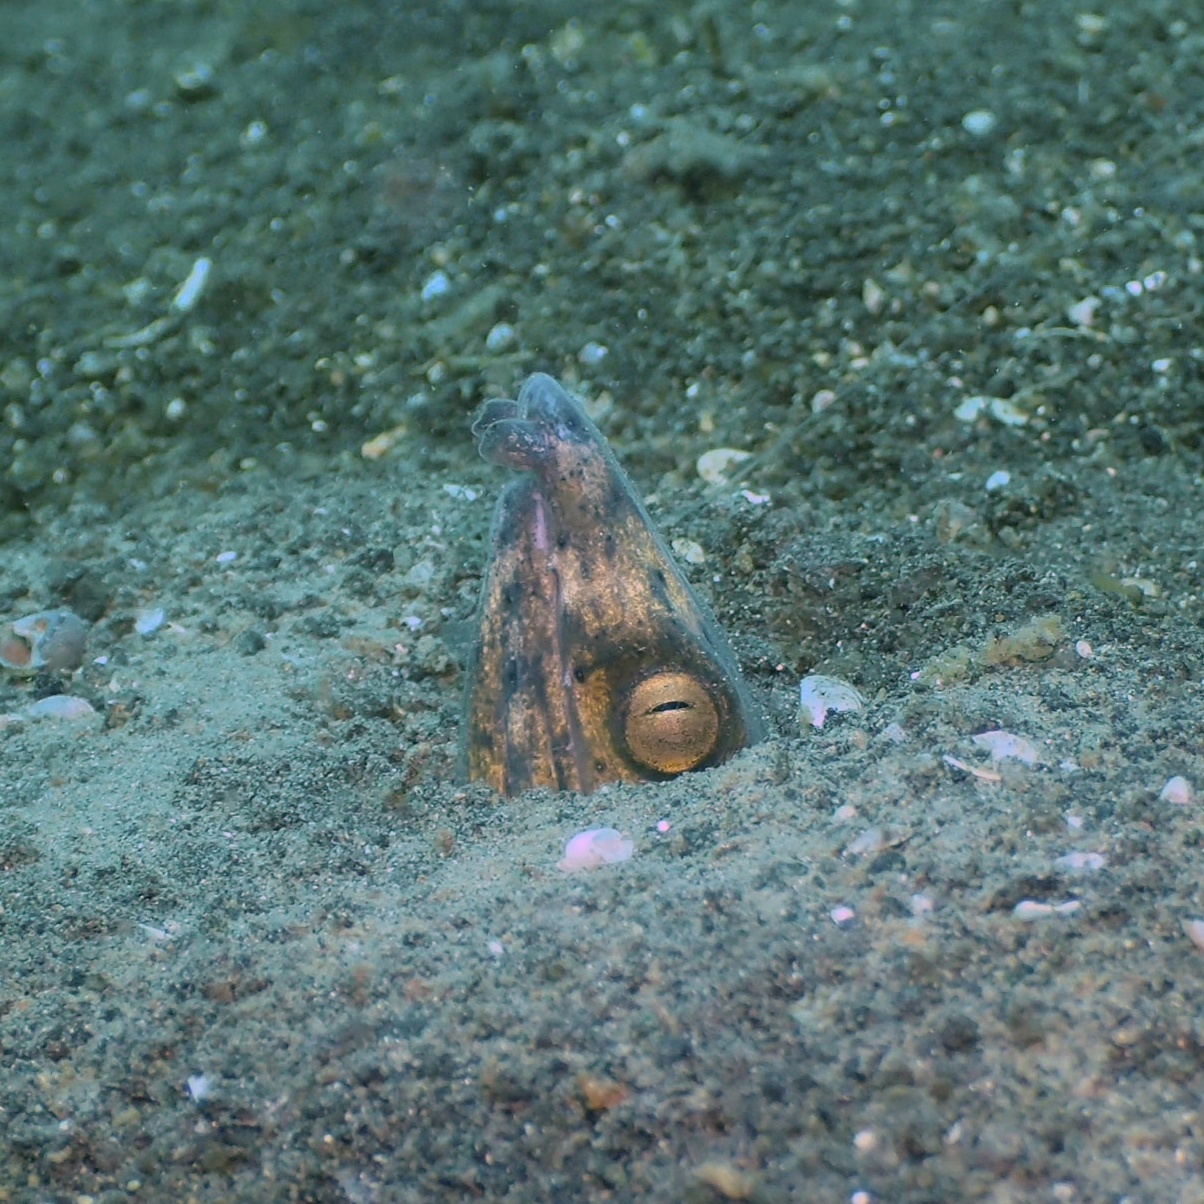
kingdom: Animalia
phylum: Chordata
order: Anguilliformes
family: Ophichthidae
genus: Ophichthus
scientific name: Ophichthus altipennis
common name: Highfin snake eel
